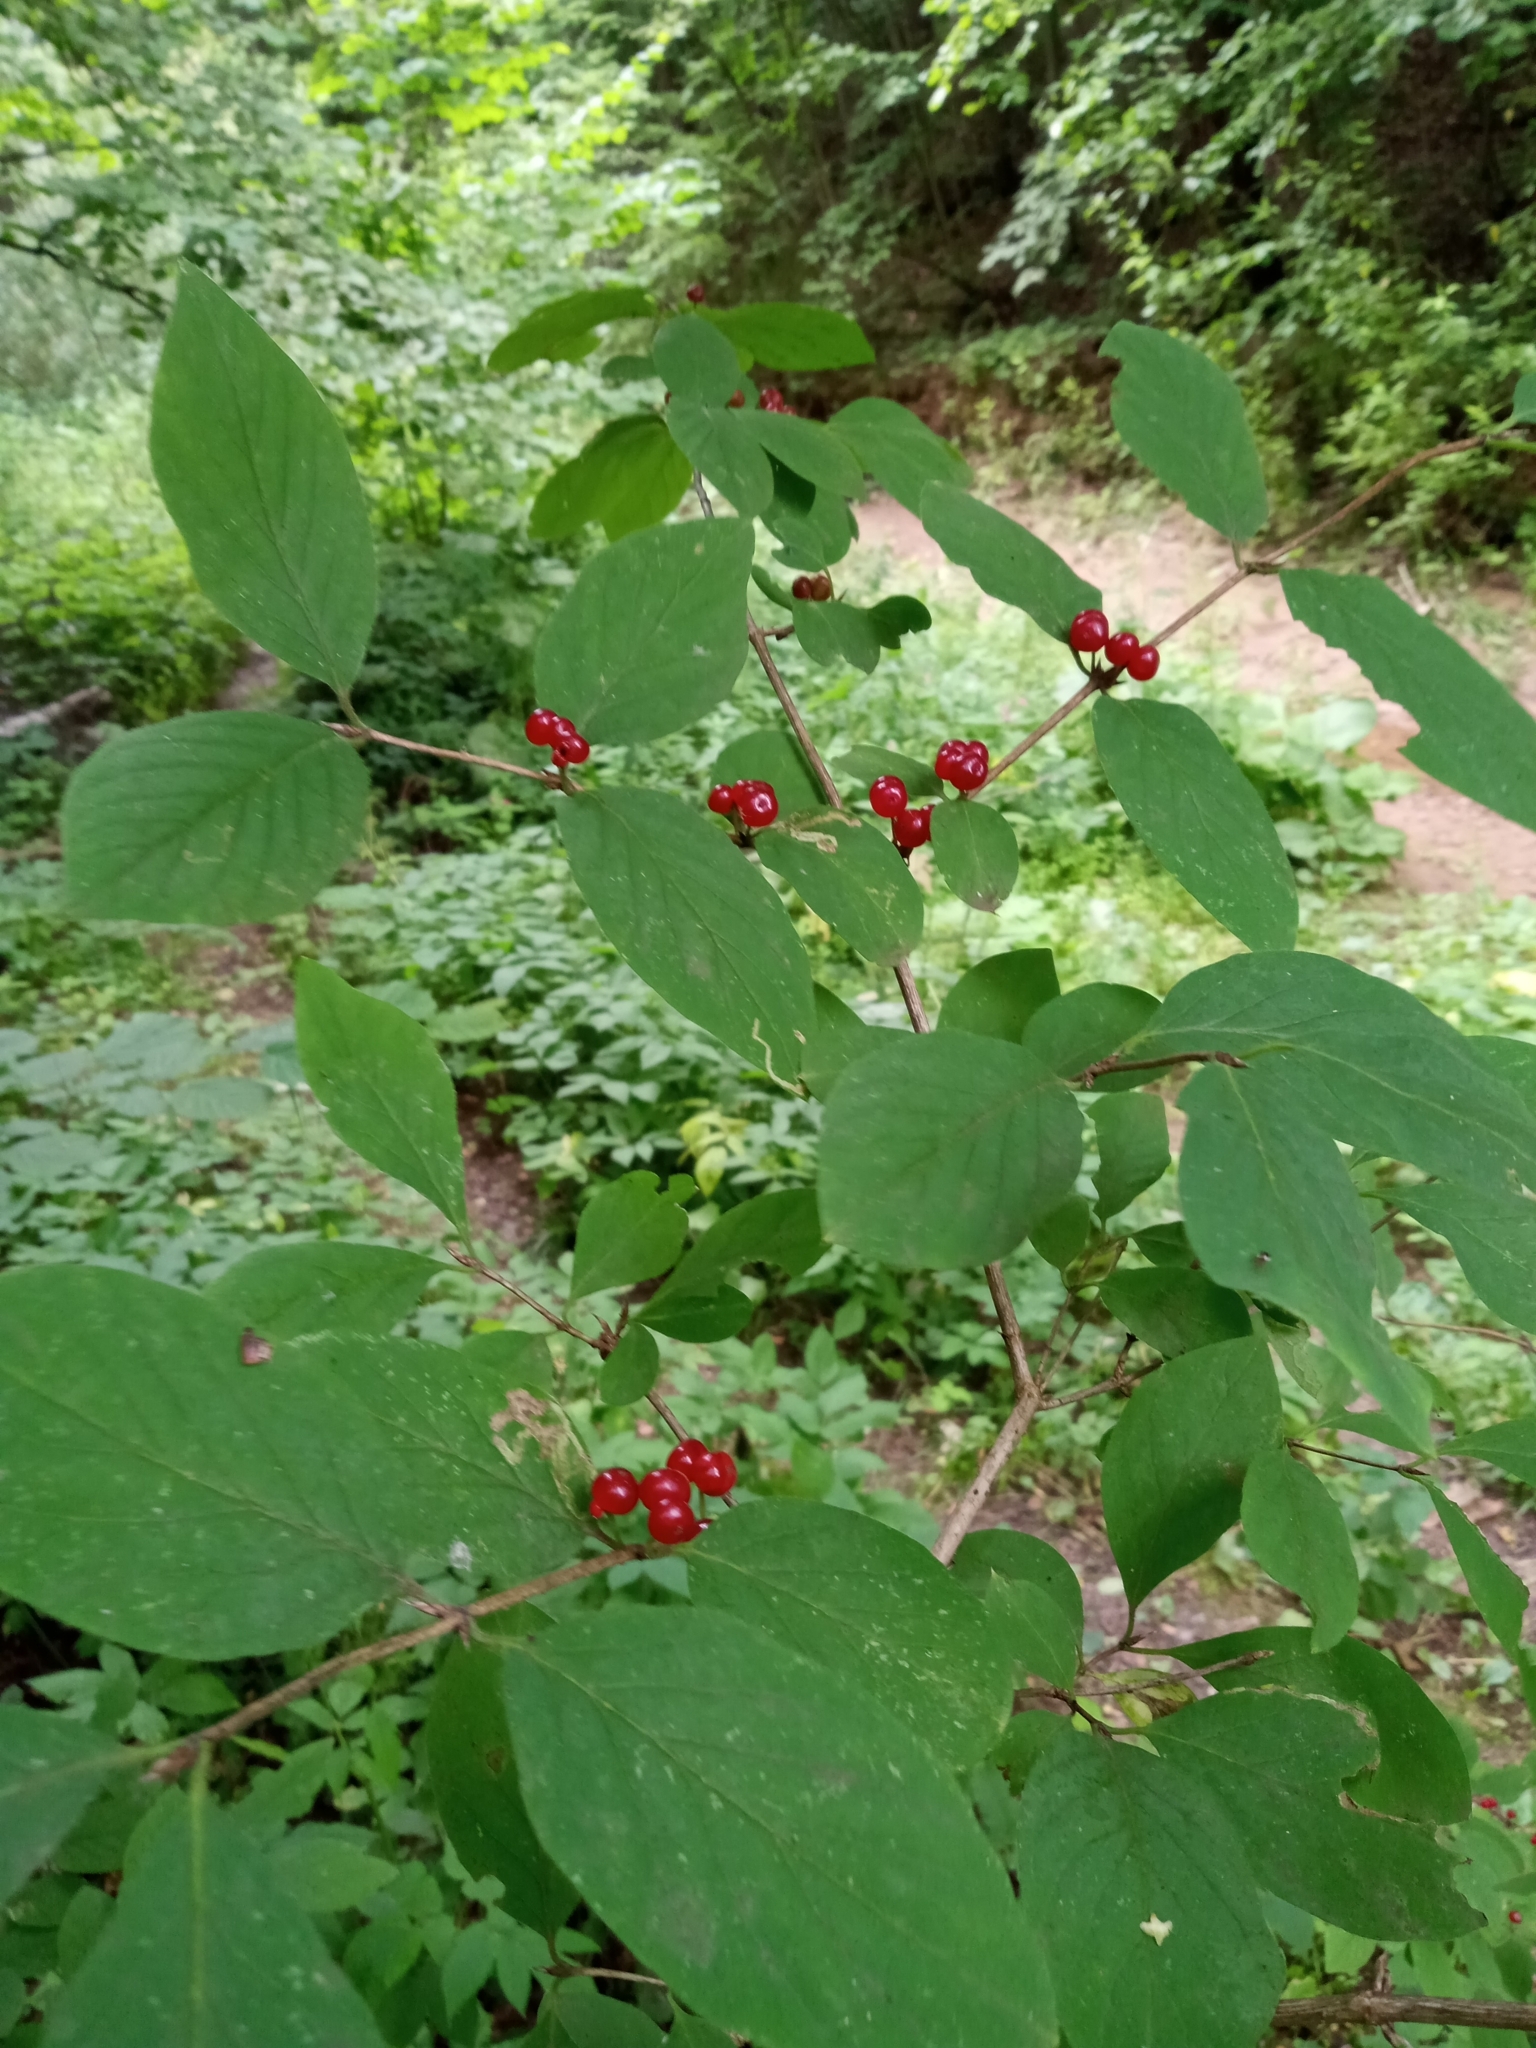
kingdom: Plantae
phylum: Tracheophyta
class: Magnoliopsida
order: Dipsacales
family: Caprifoliaceae
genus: Lonicera
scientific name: Lonicera xylosteum
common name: Fly honeysuckle
